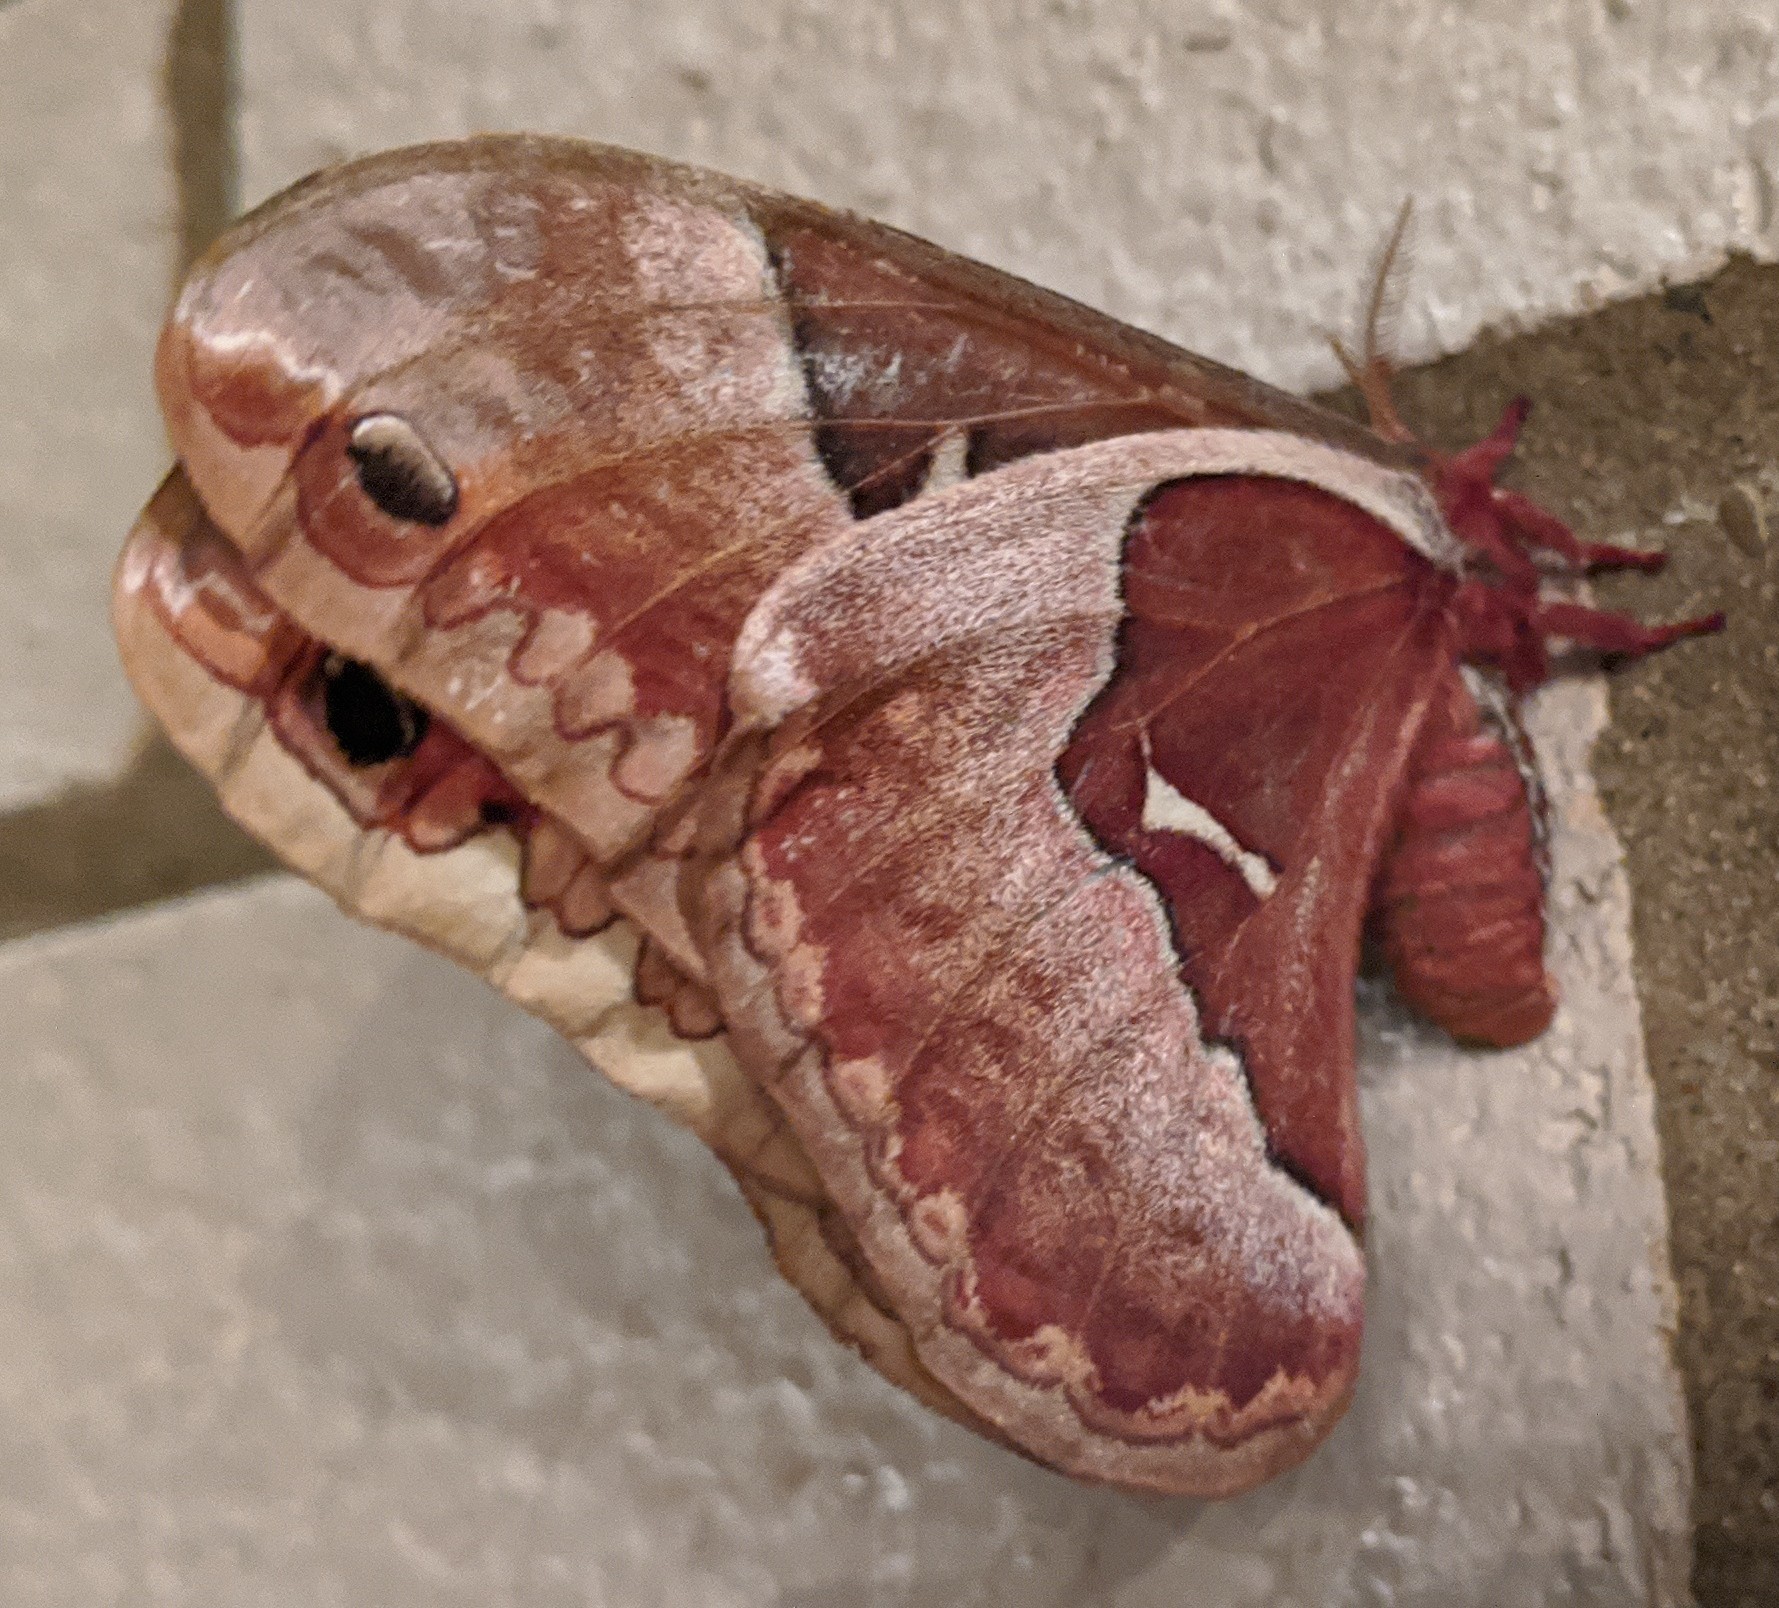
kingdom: Animalia
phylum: Arthropoda
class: Insecta
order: Lepidoptera
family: Saturniidae
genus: Callosamia
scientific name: Callosamia angulifera
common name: Tulip tree silkmoth
